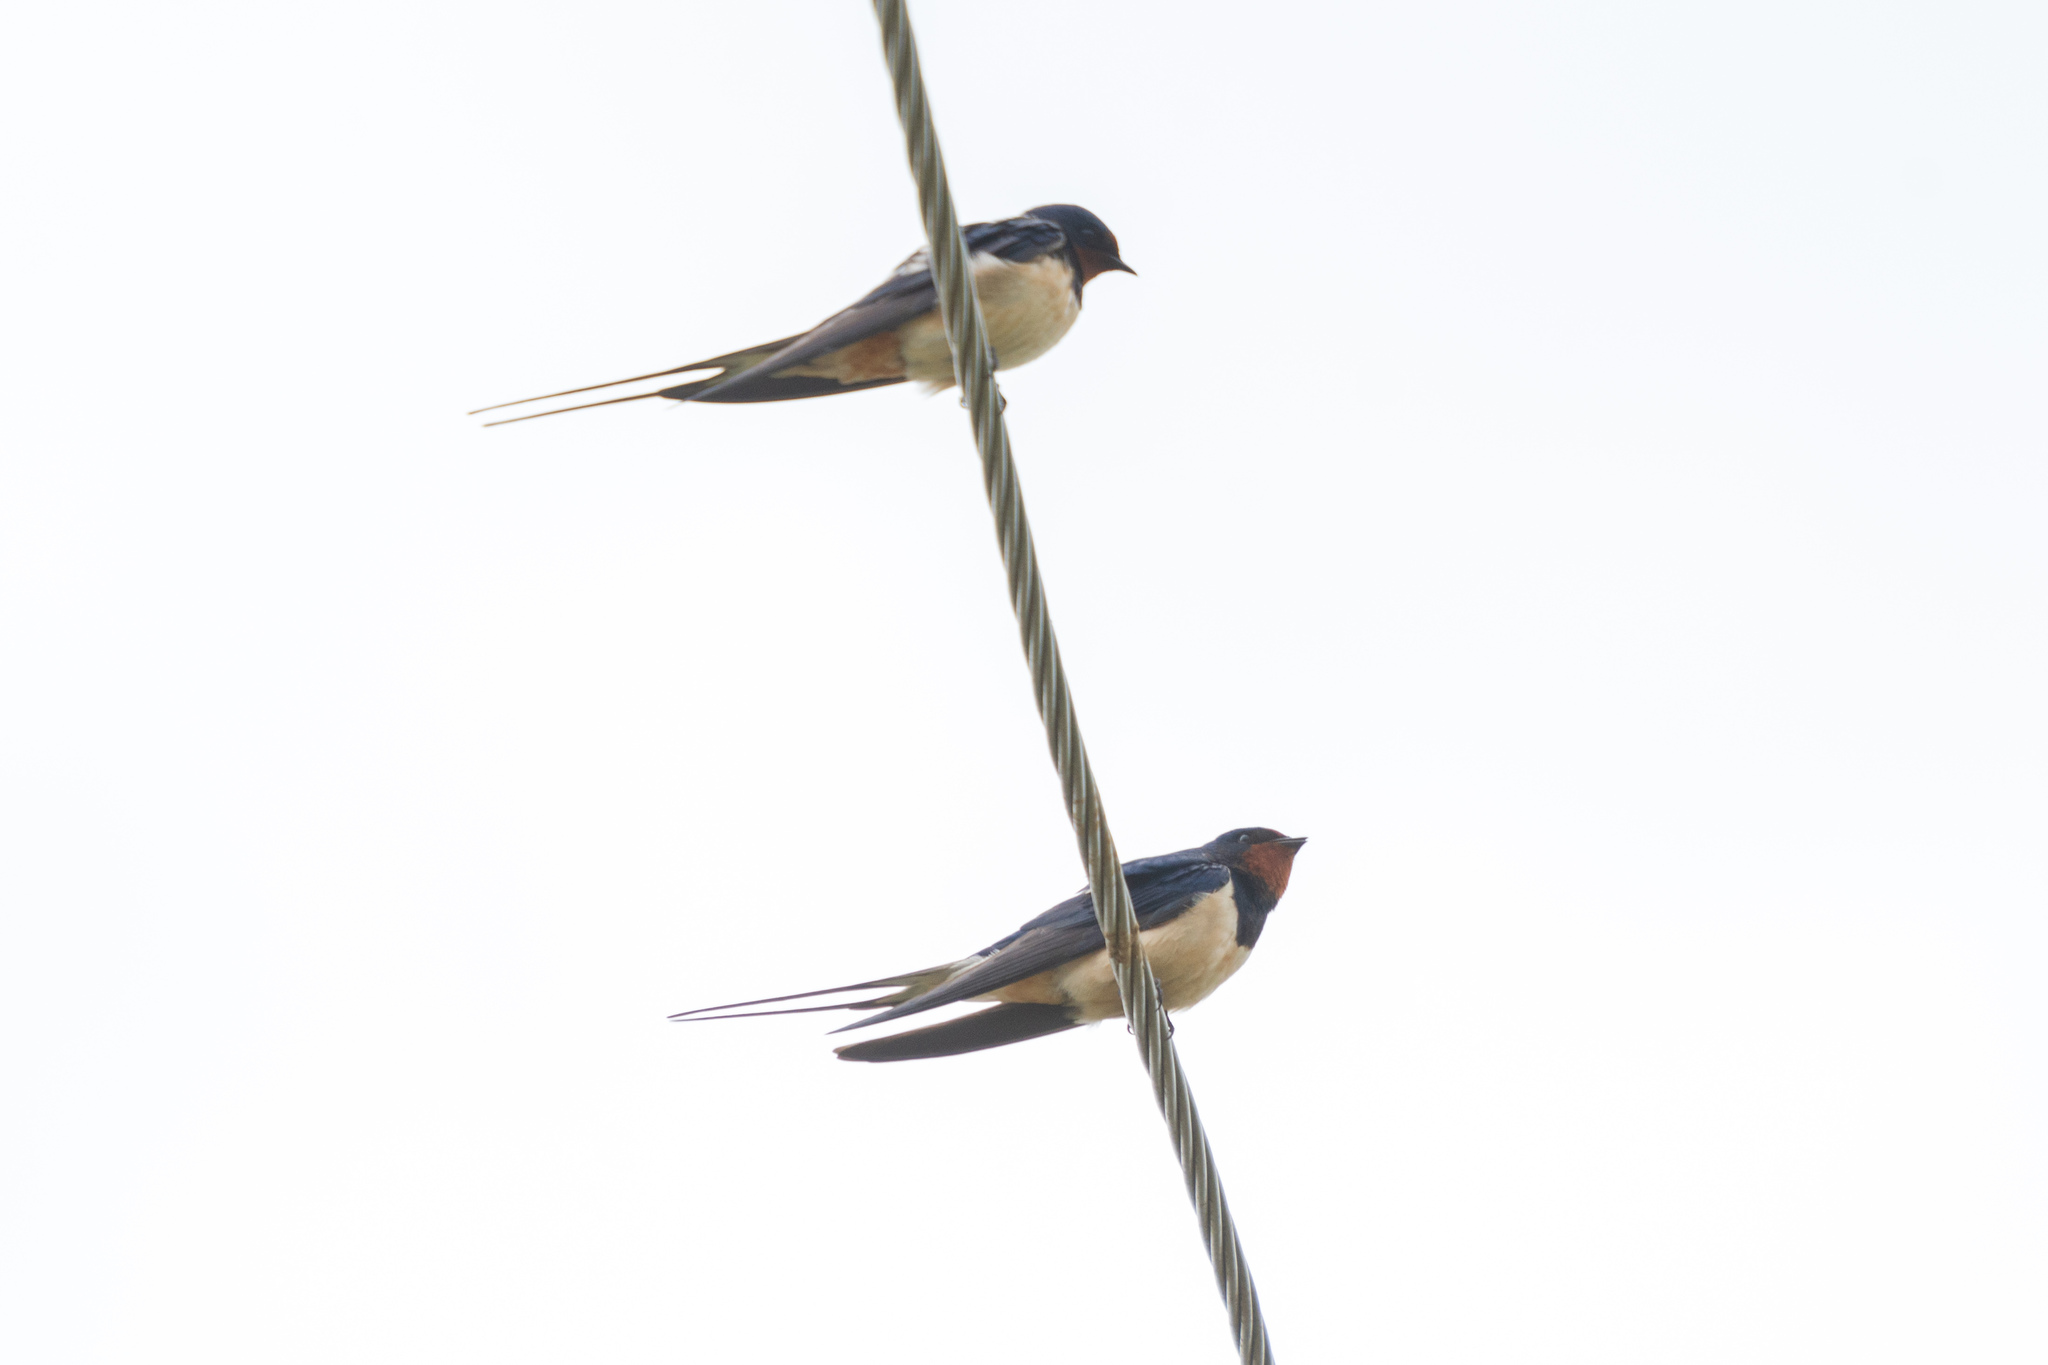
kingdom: Animalia
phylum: Chordata
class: Aves
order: Passeriformes
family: Hirundinidae
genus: Hirundo
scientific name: Hirundo rustica
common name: Barn swallow
